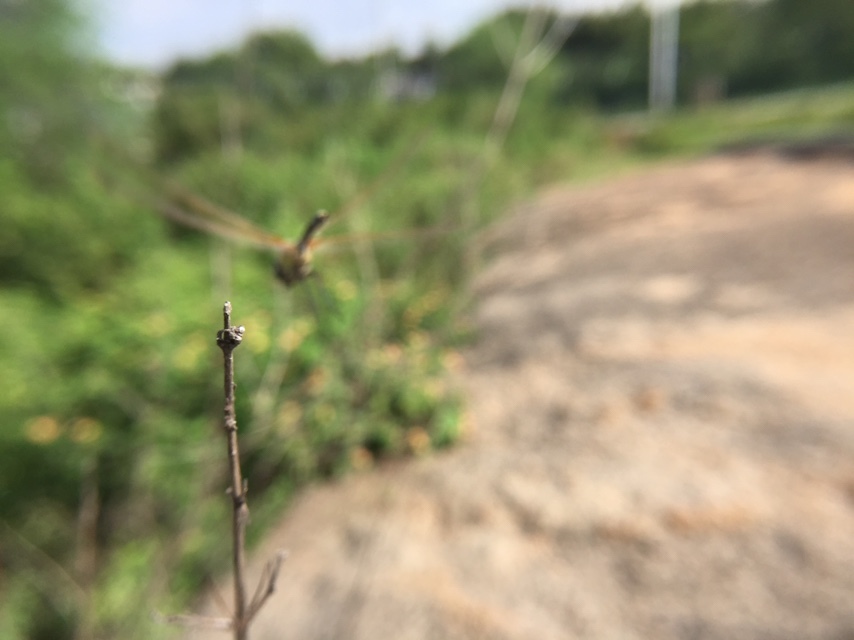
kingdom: Animalia
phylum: Arthropoda
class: Insecta
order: Odonata
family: Libellulidae
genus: Trithemis
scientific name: Trithemis pallidinervis
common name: Dancing dropwing
